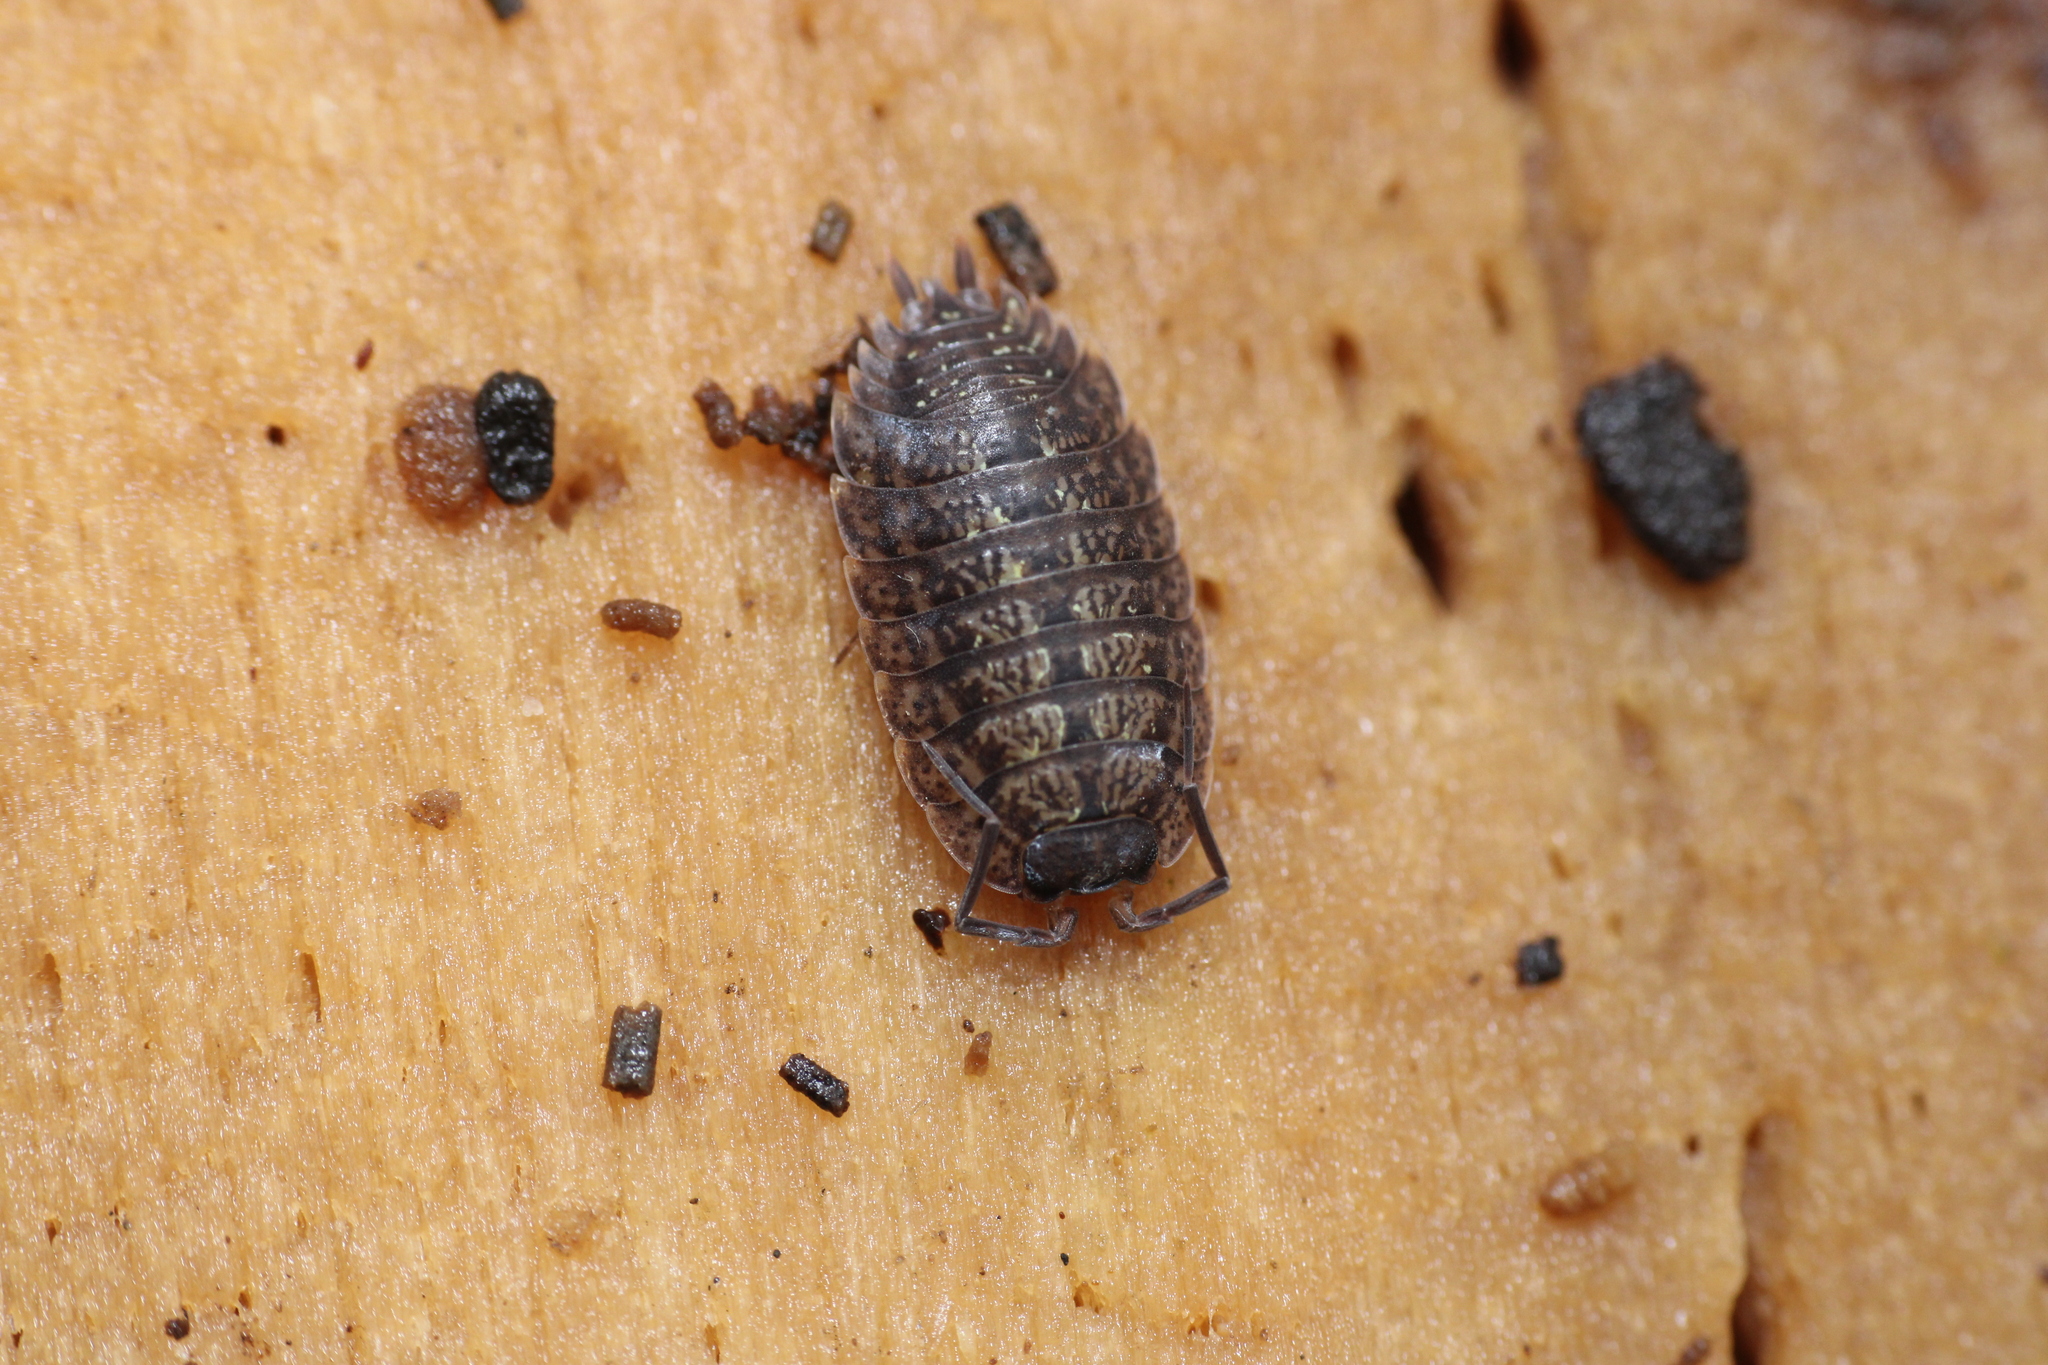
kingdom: Animalia
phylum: Arthropoda
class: Malacostraca
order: Isopoda
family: Porcellionidae
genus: Porcellio
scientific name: Porcellio monticola
